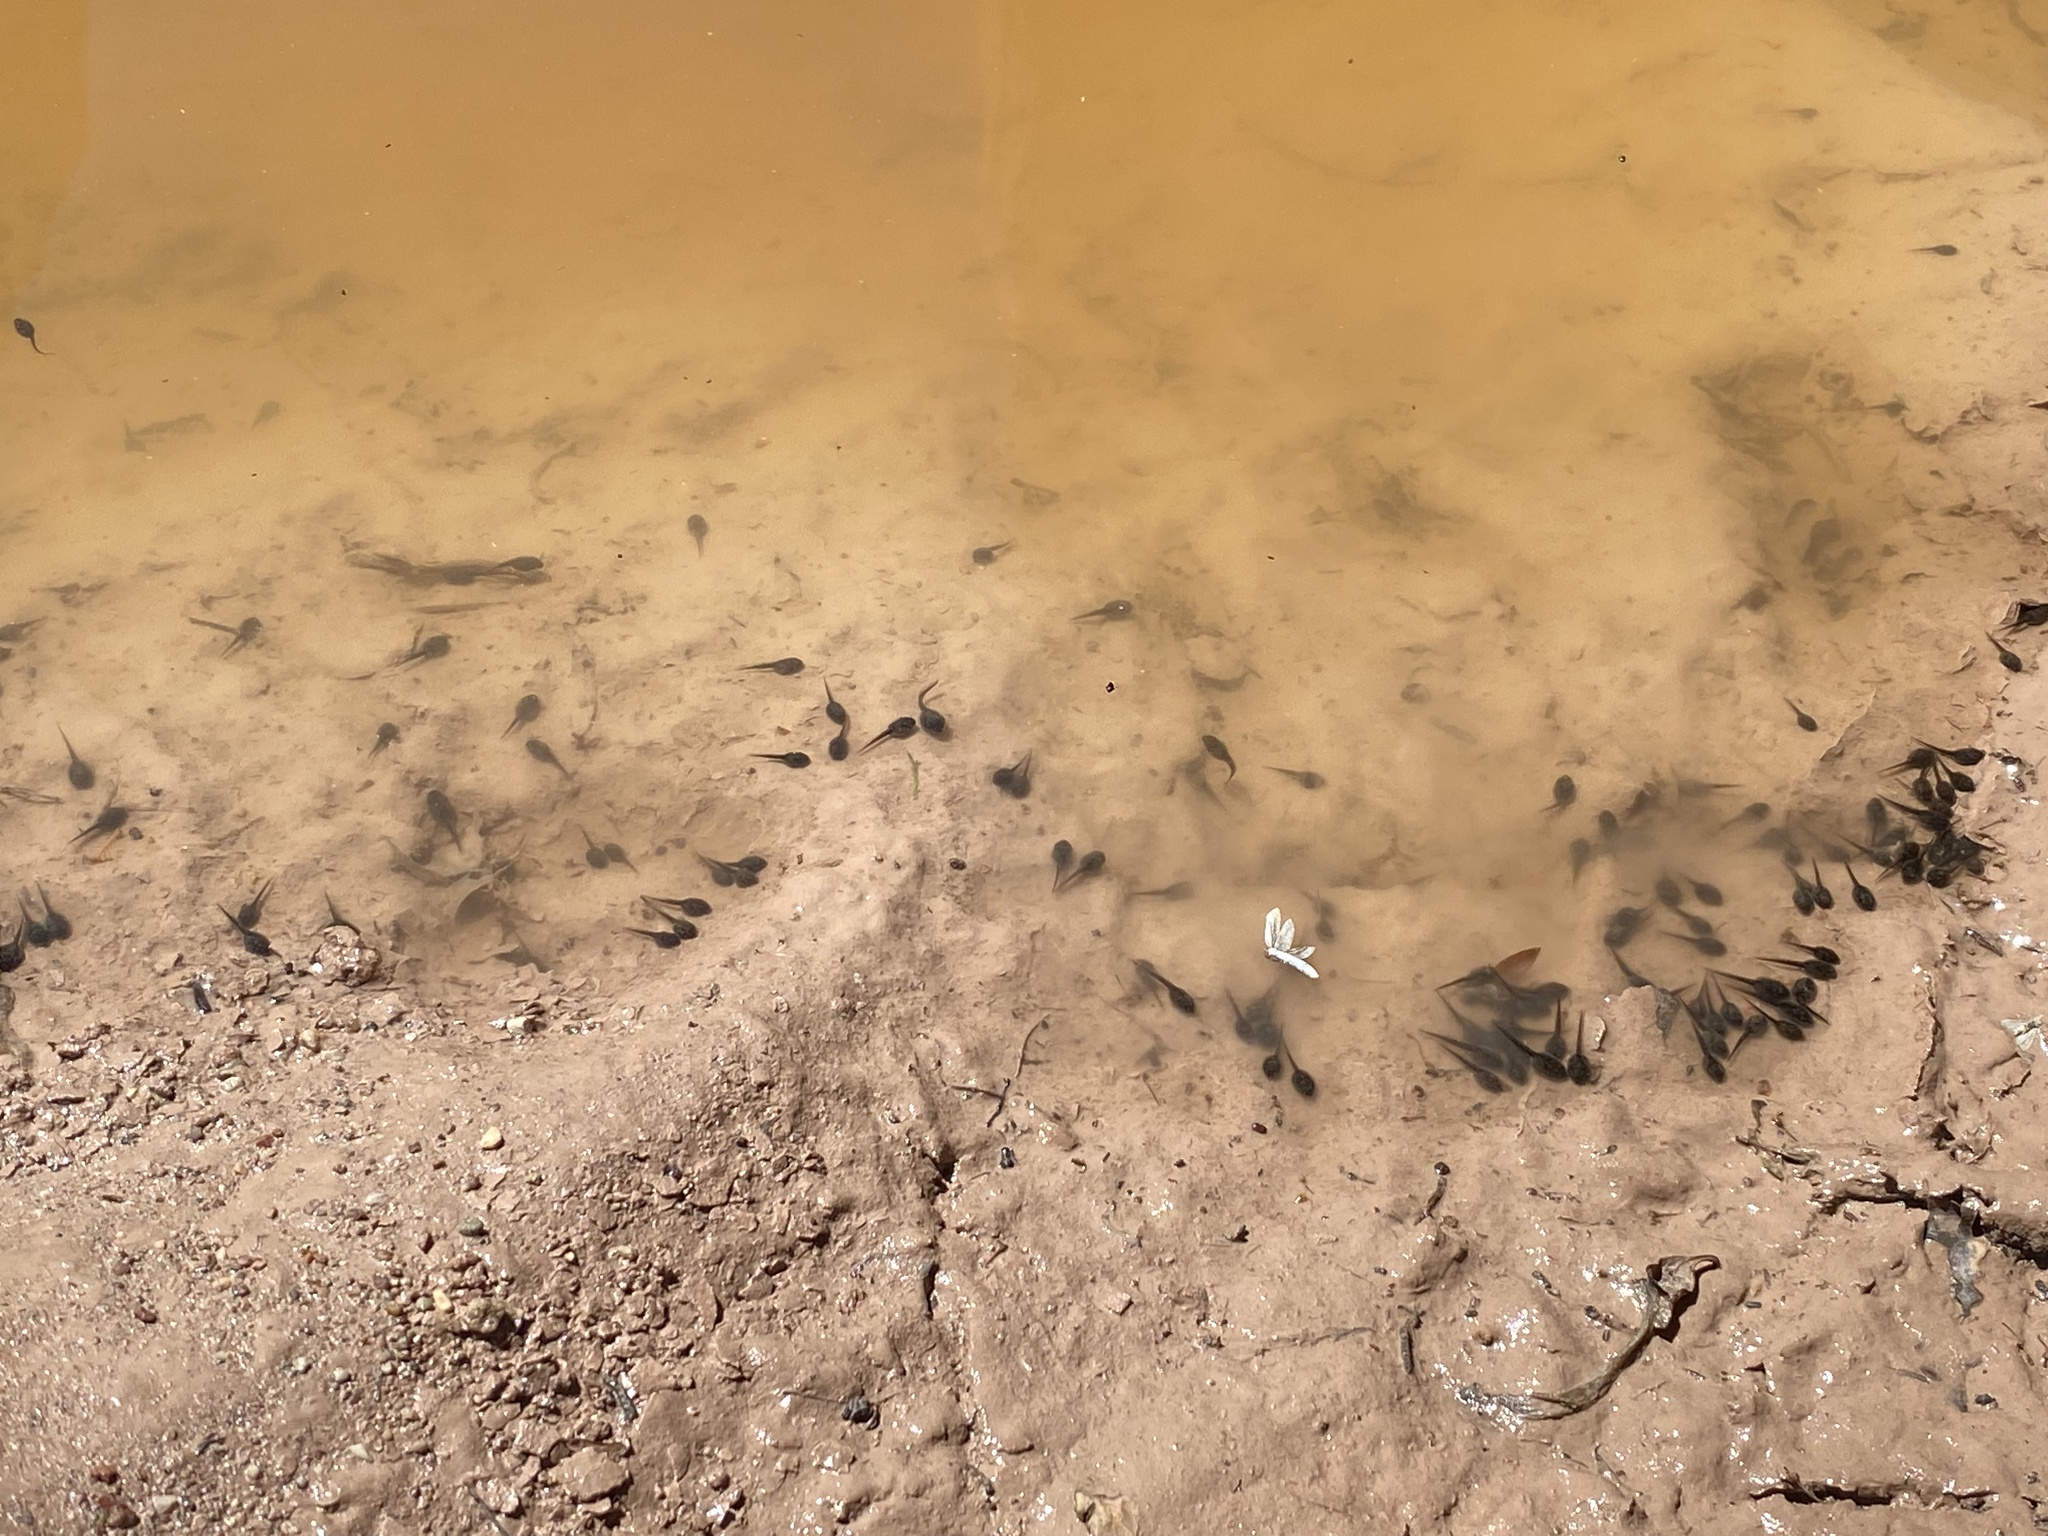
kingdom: Animalia
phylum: Chordata
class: Amphibia
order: Anura
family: Bufonidae
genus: Anaxyrus
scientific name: Anaxyrus
